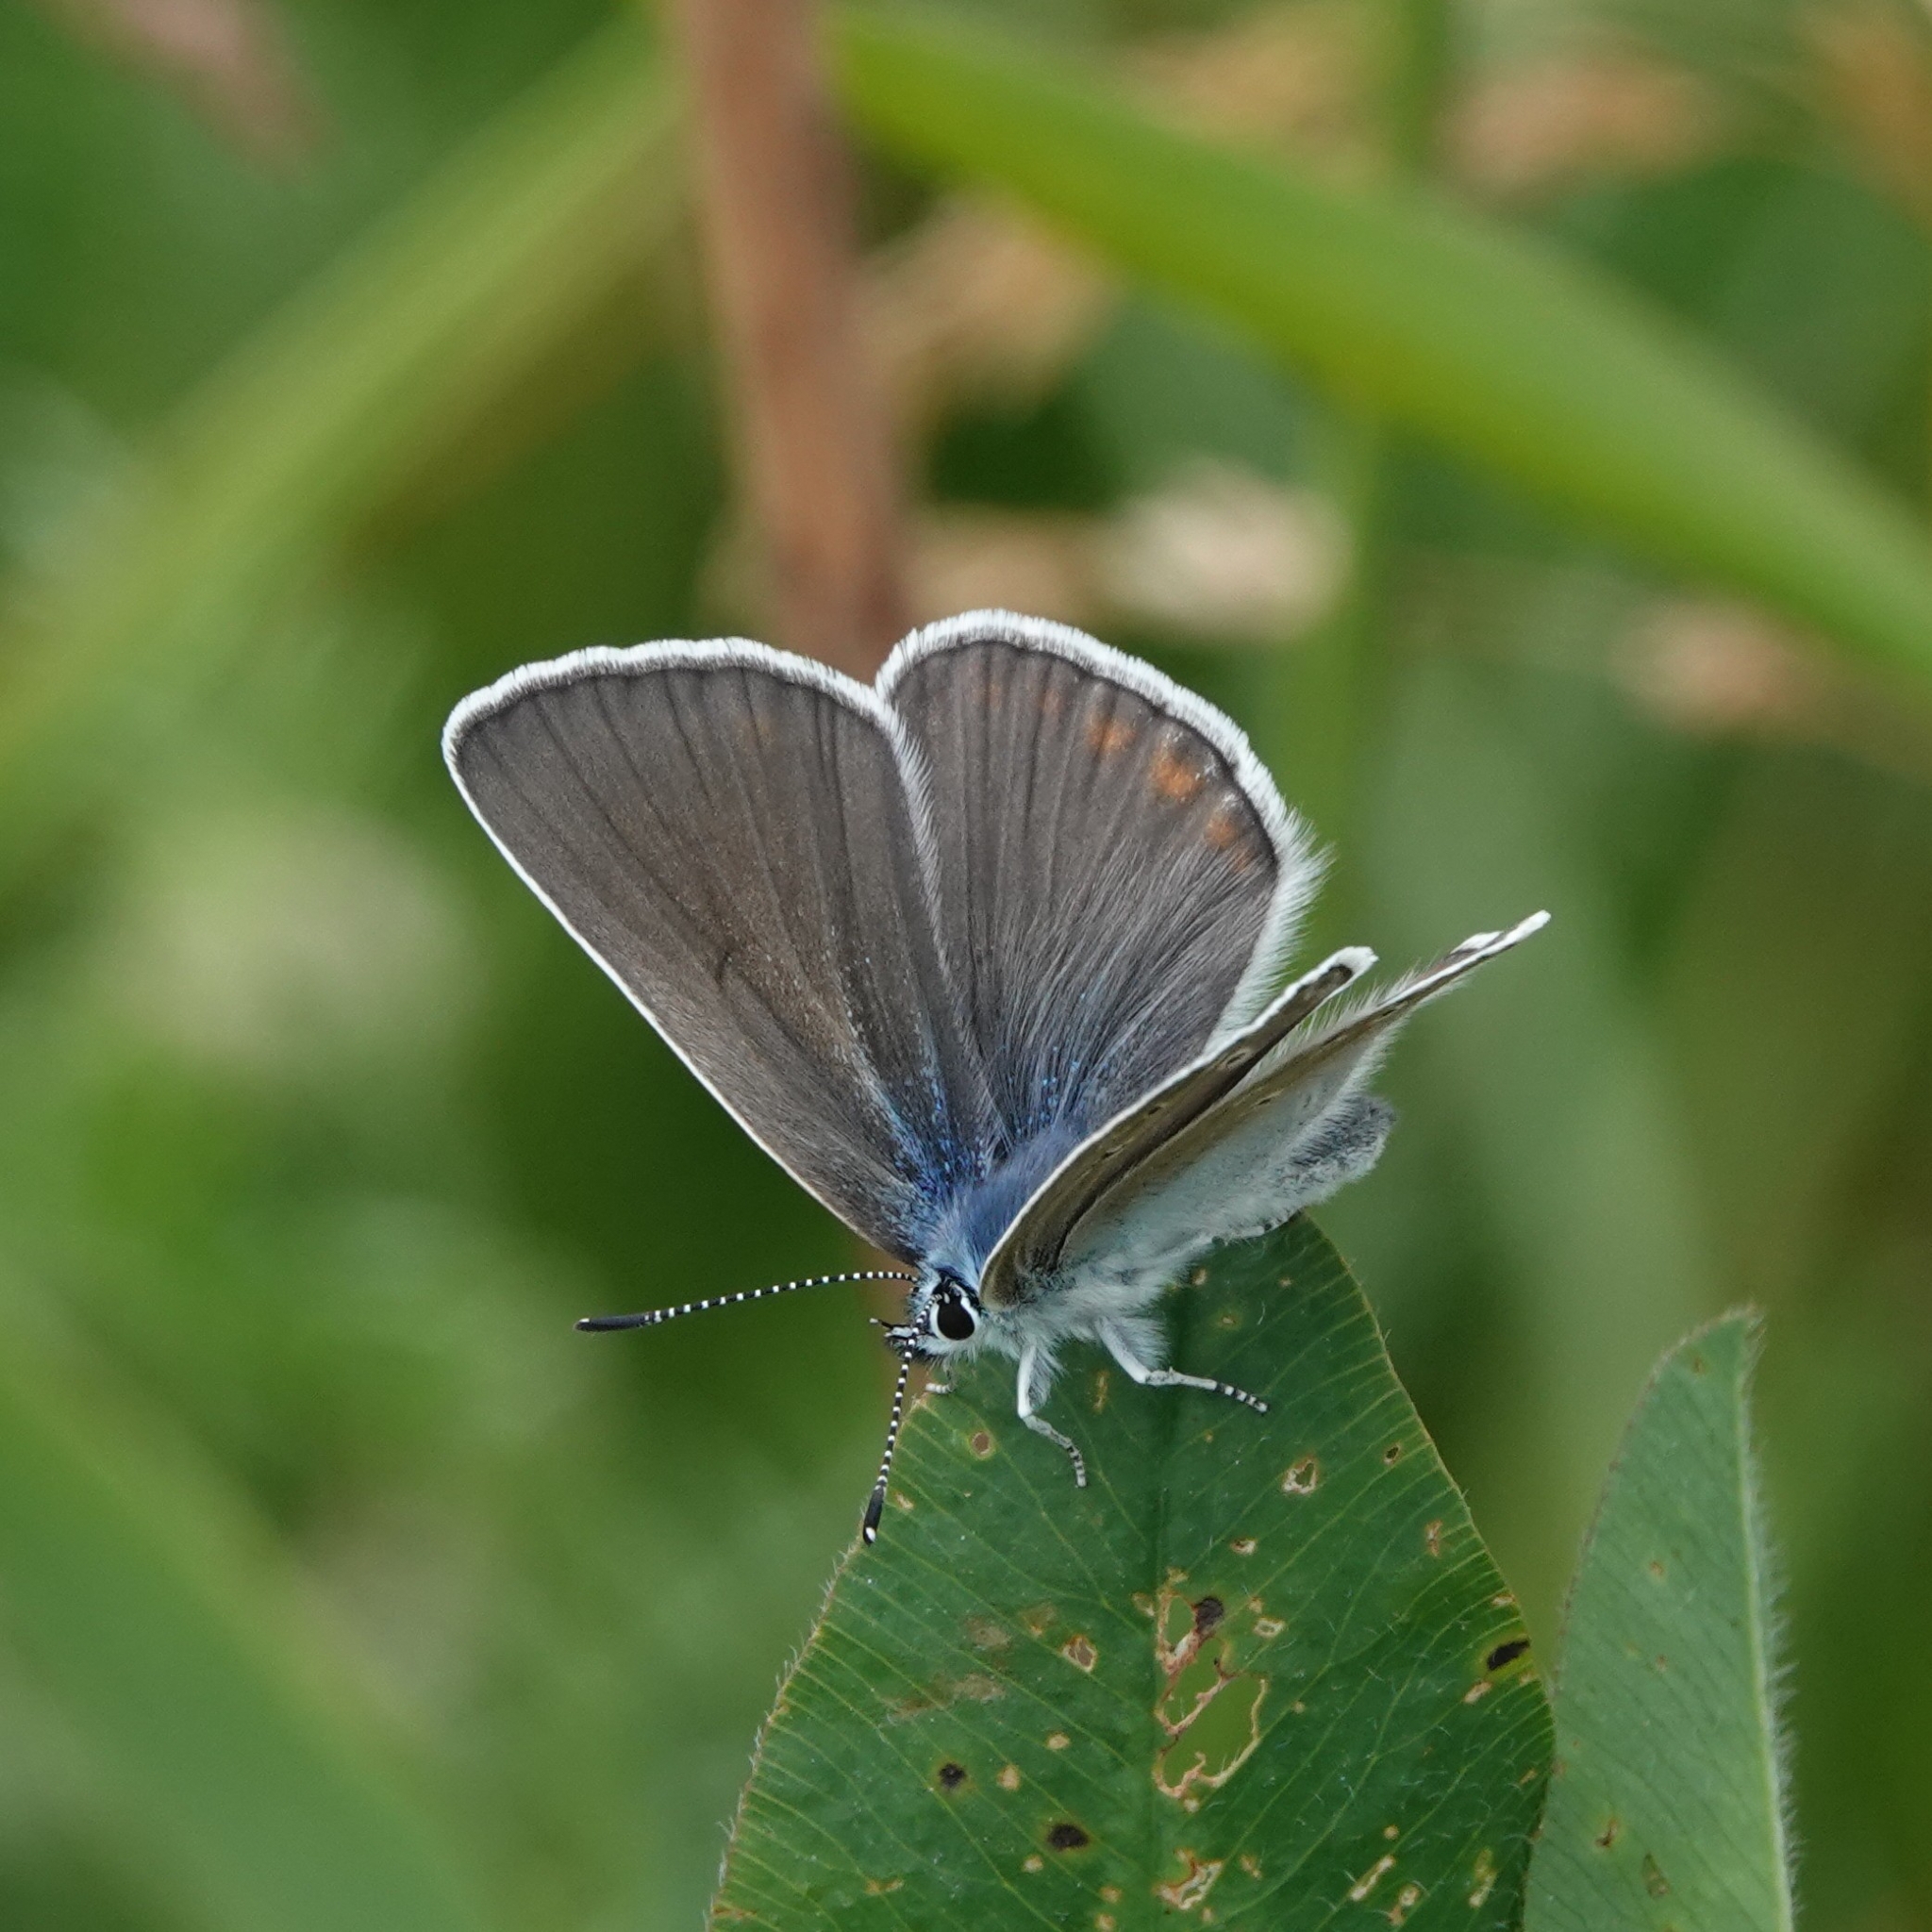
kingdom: Animalia
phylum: Arthropoda
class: Insecta
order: Lepidoptera
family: Lycaenidae
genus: Plebejus
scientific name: Plebejus amanda
